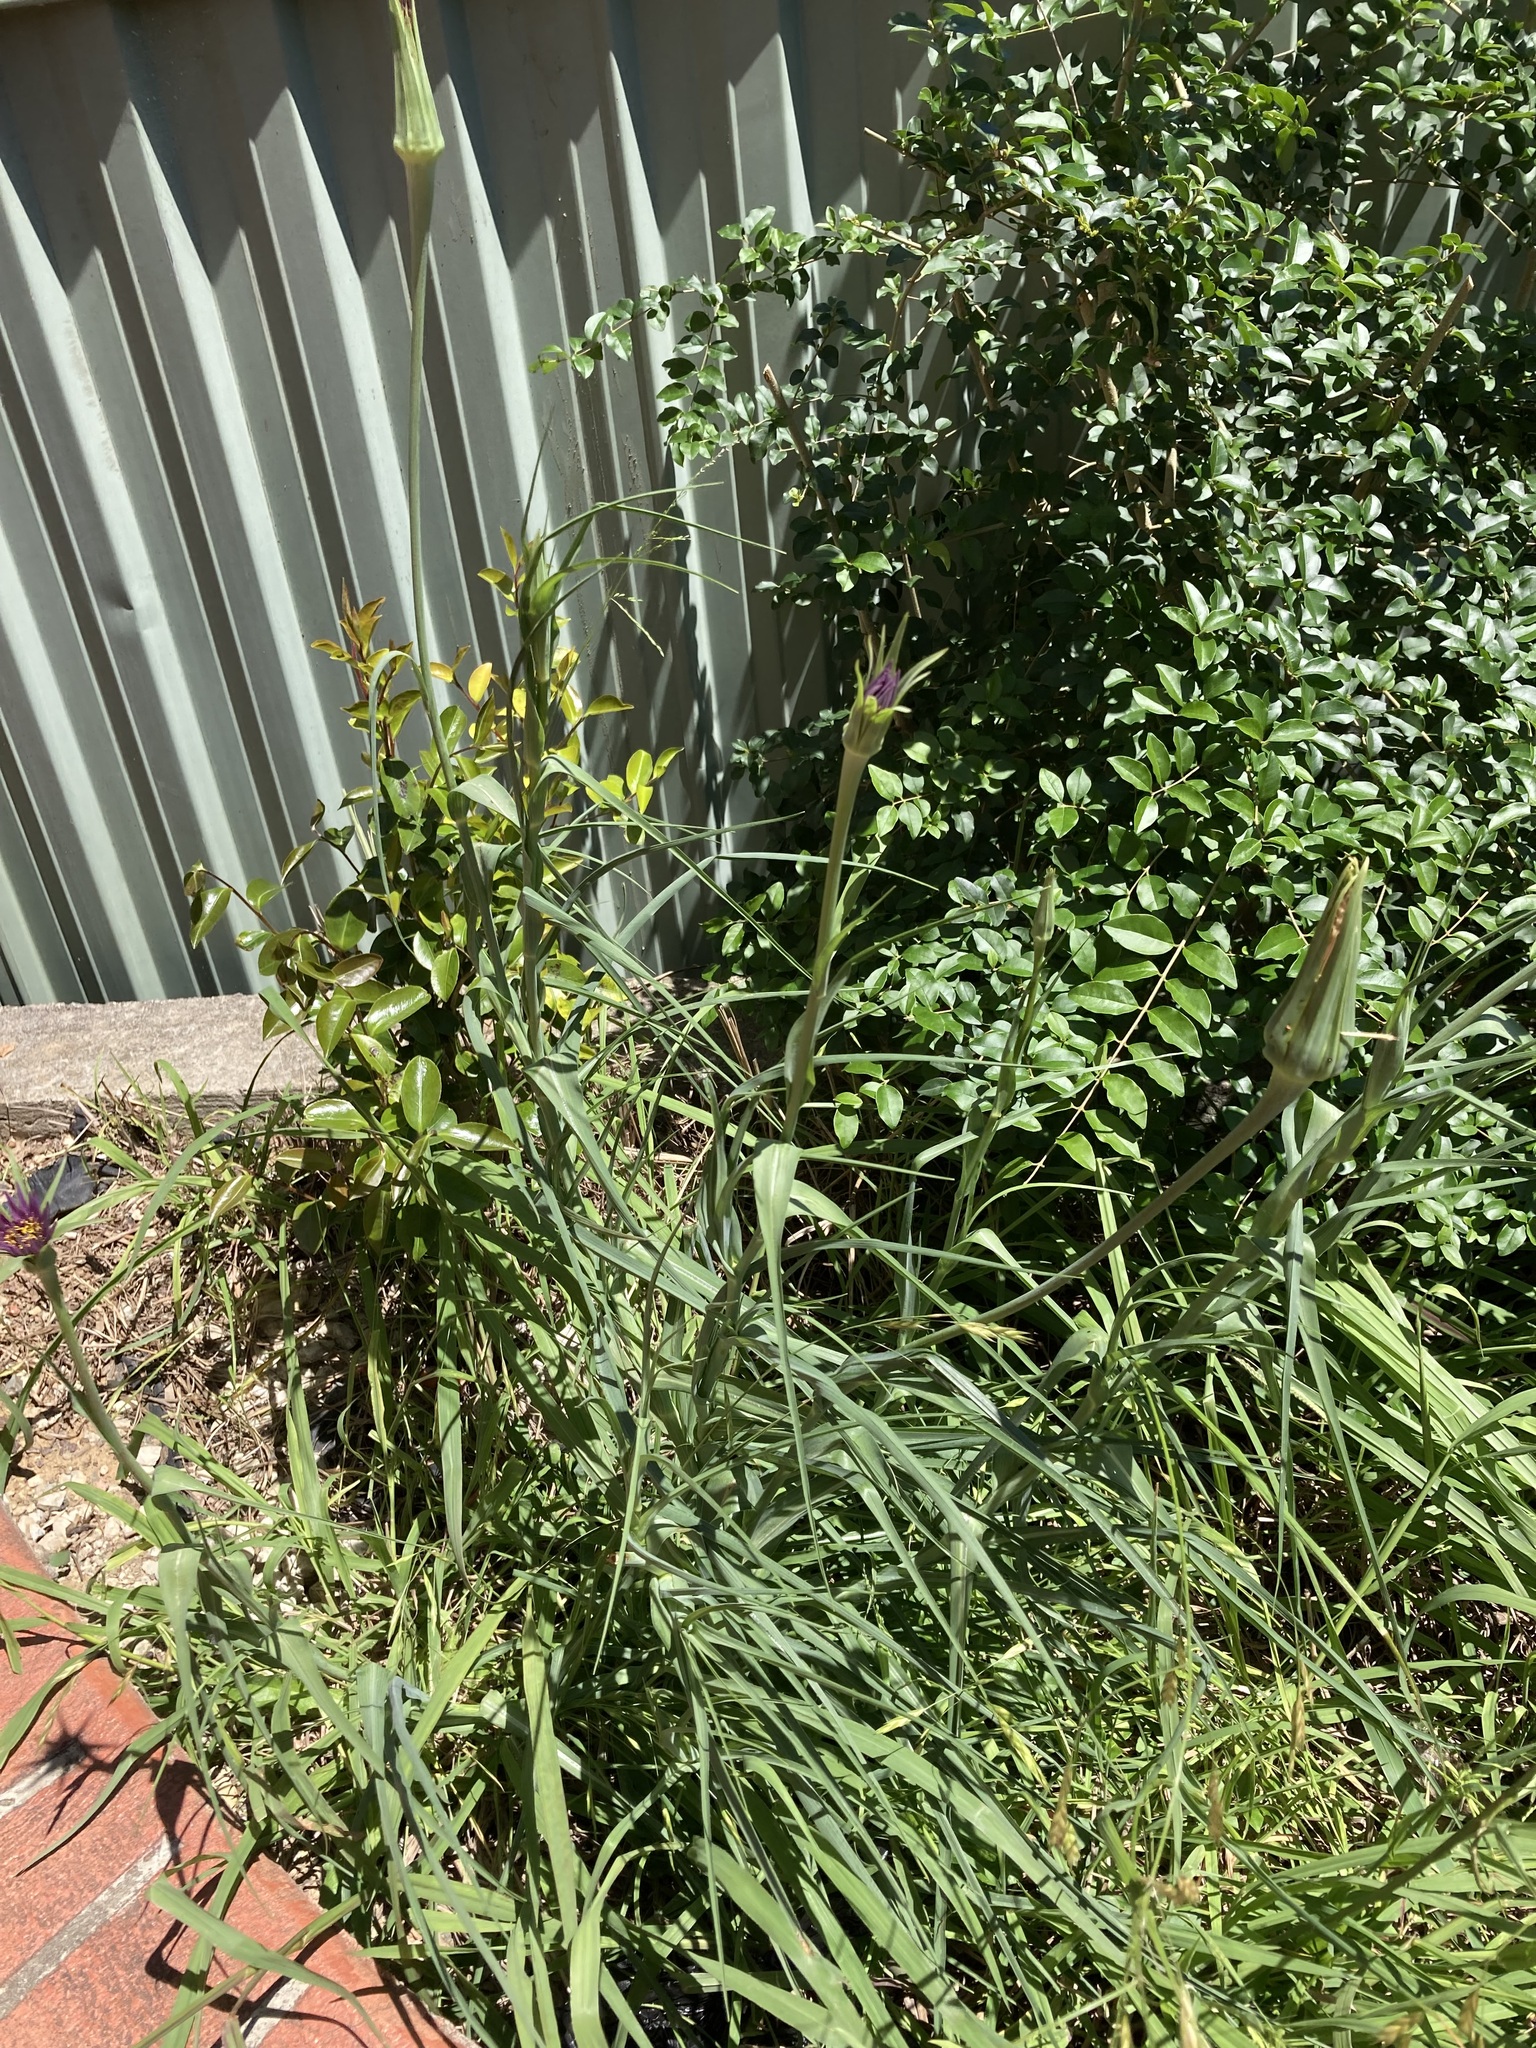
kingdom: Plantae
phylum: Tracheophyta
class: Magnoliopsida
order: Asterales
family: Asteraceae
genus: Tragopogon
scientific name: Tragopogon porrifolius
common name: Salsify
